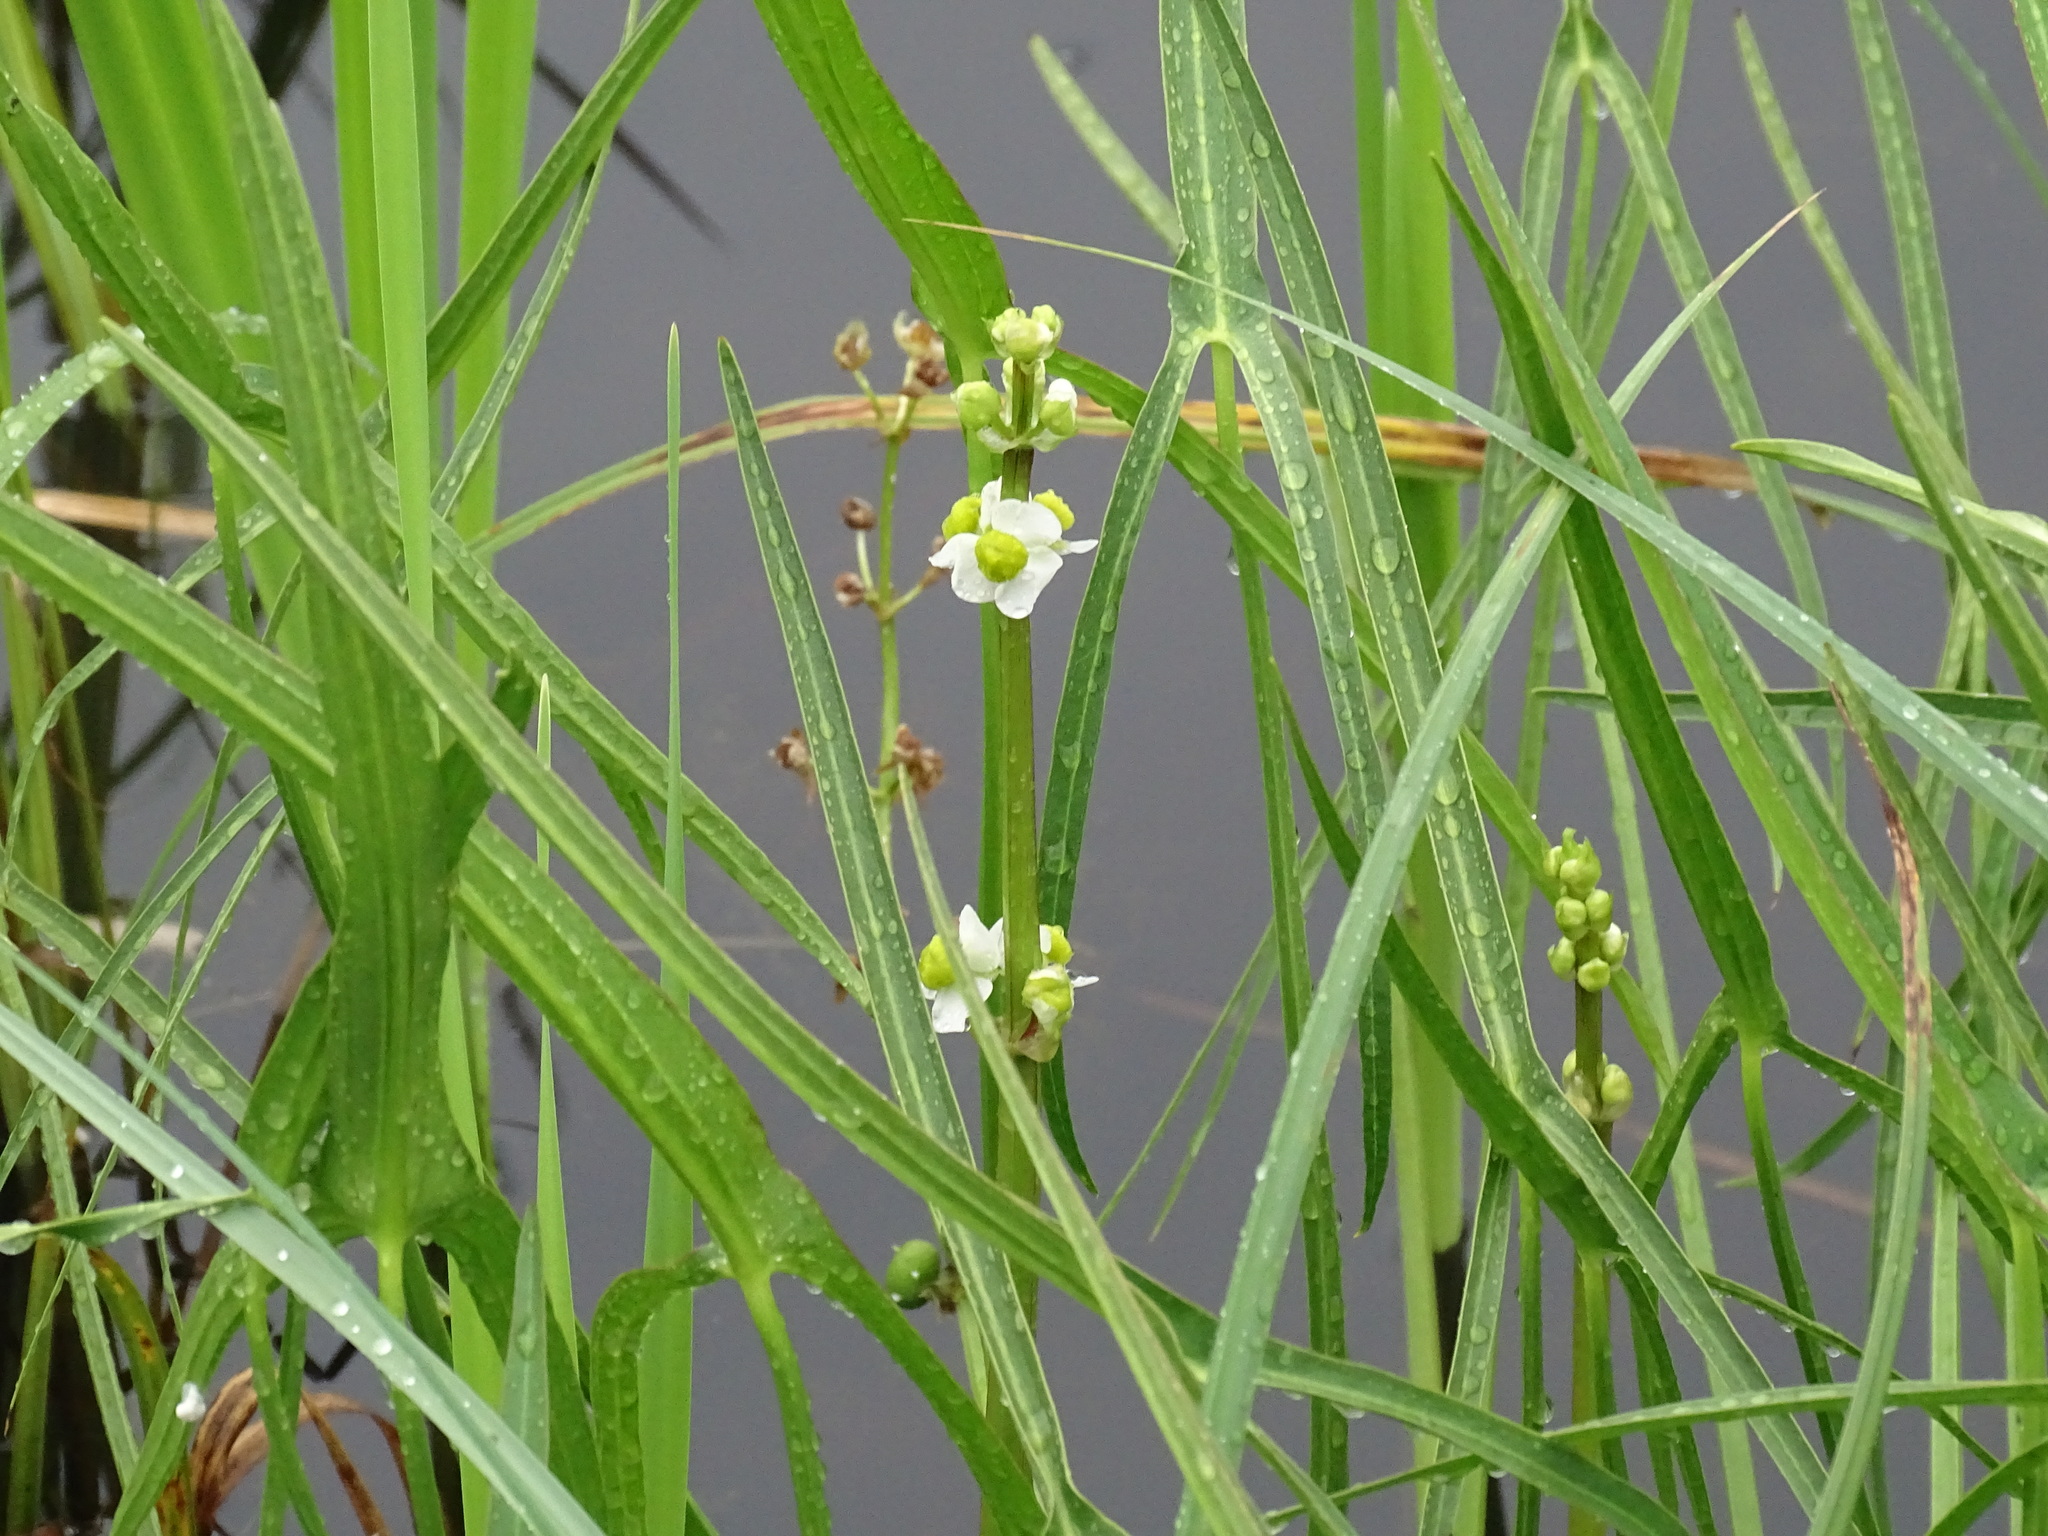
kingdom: Plantae
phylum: Tracheophyta
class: Liliopsida
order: Alismatales
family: Alismataceae
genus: Sagittaria
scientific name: Sagittaria latifolia
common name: Duck-potato
